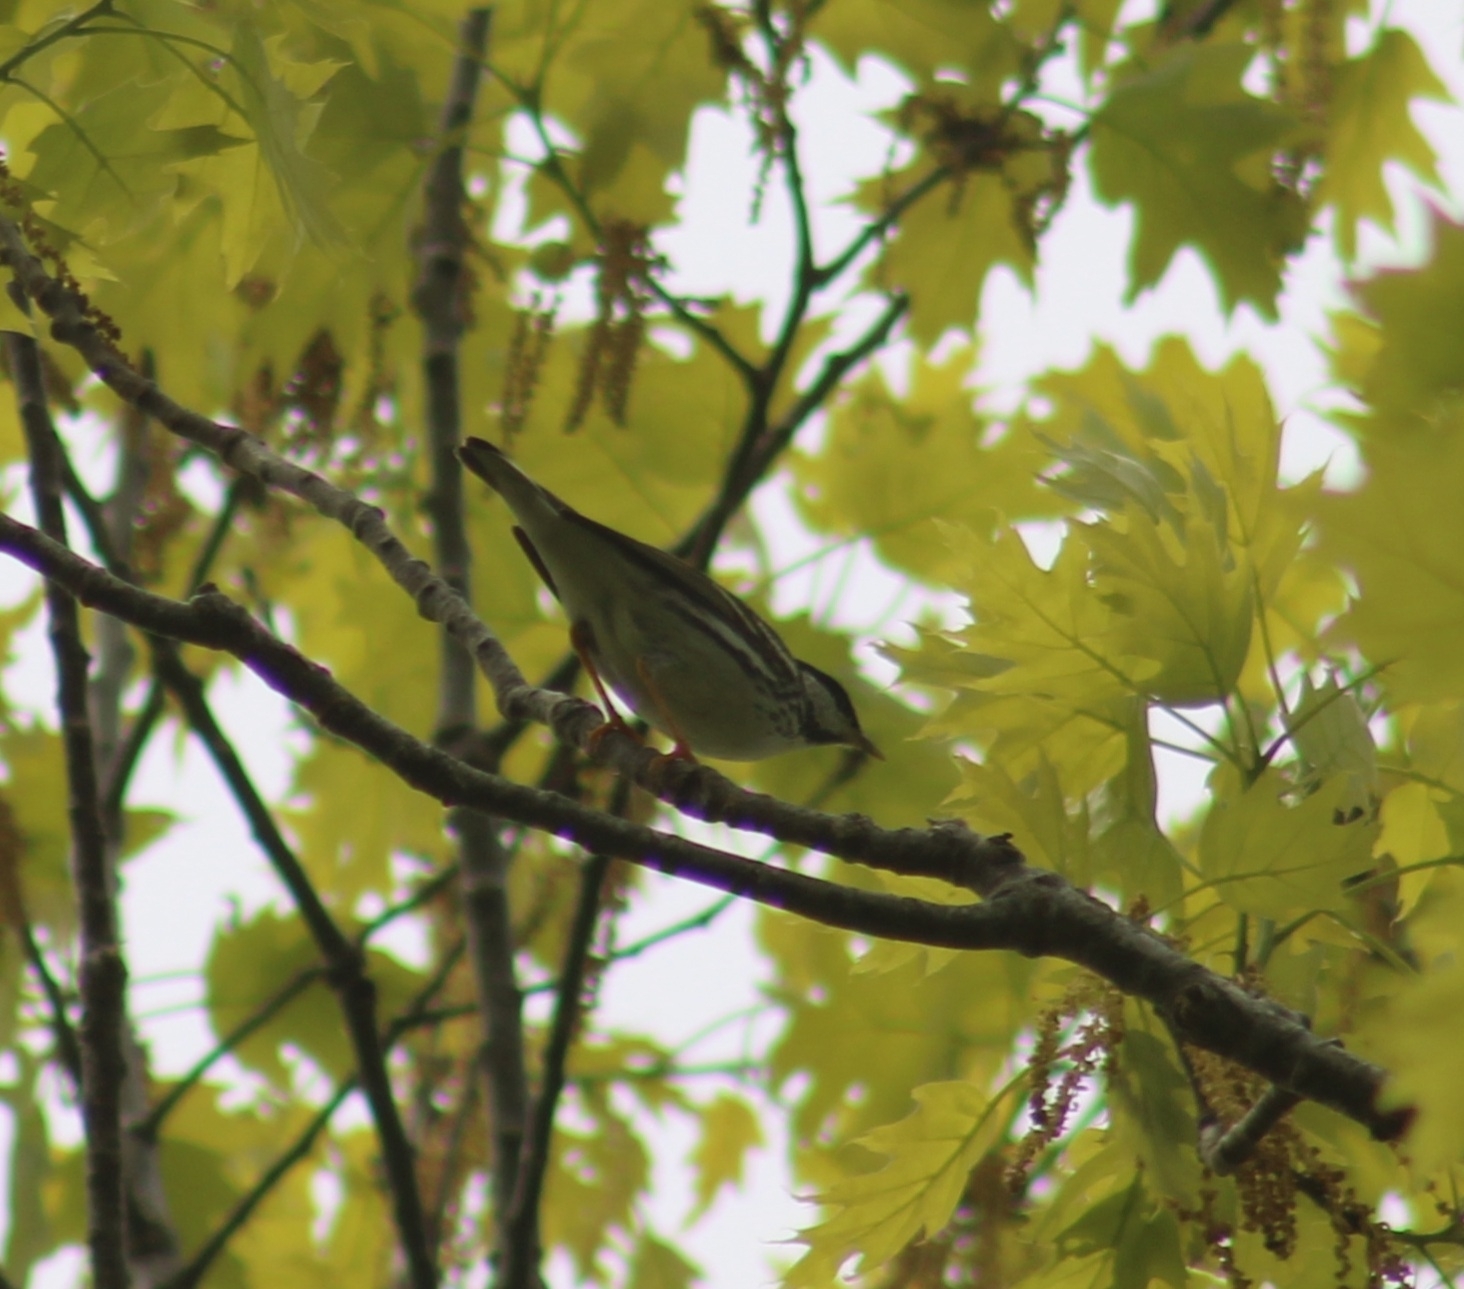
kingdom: Animalia
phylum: Chordata
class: Aves
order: Passeriformes
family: Parulidae
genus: Setophaga
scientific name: Setophaga striata
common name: Blackpoll warbler
